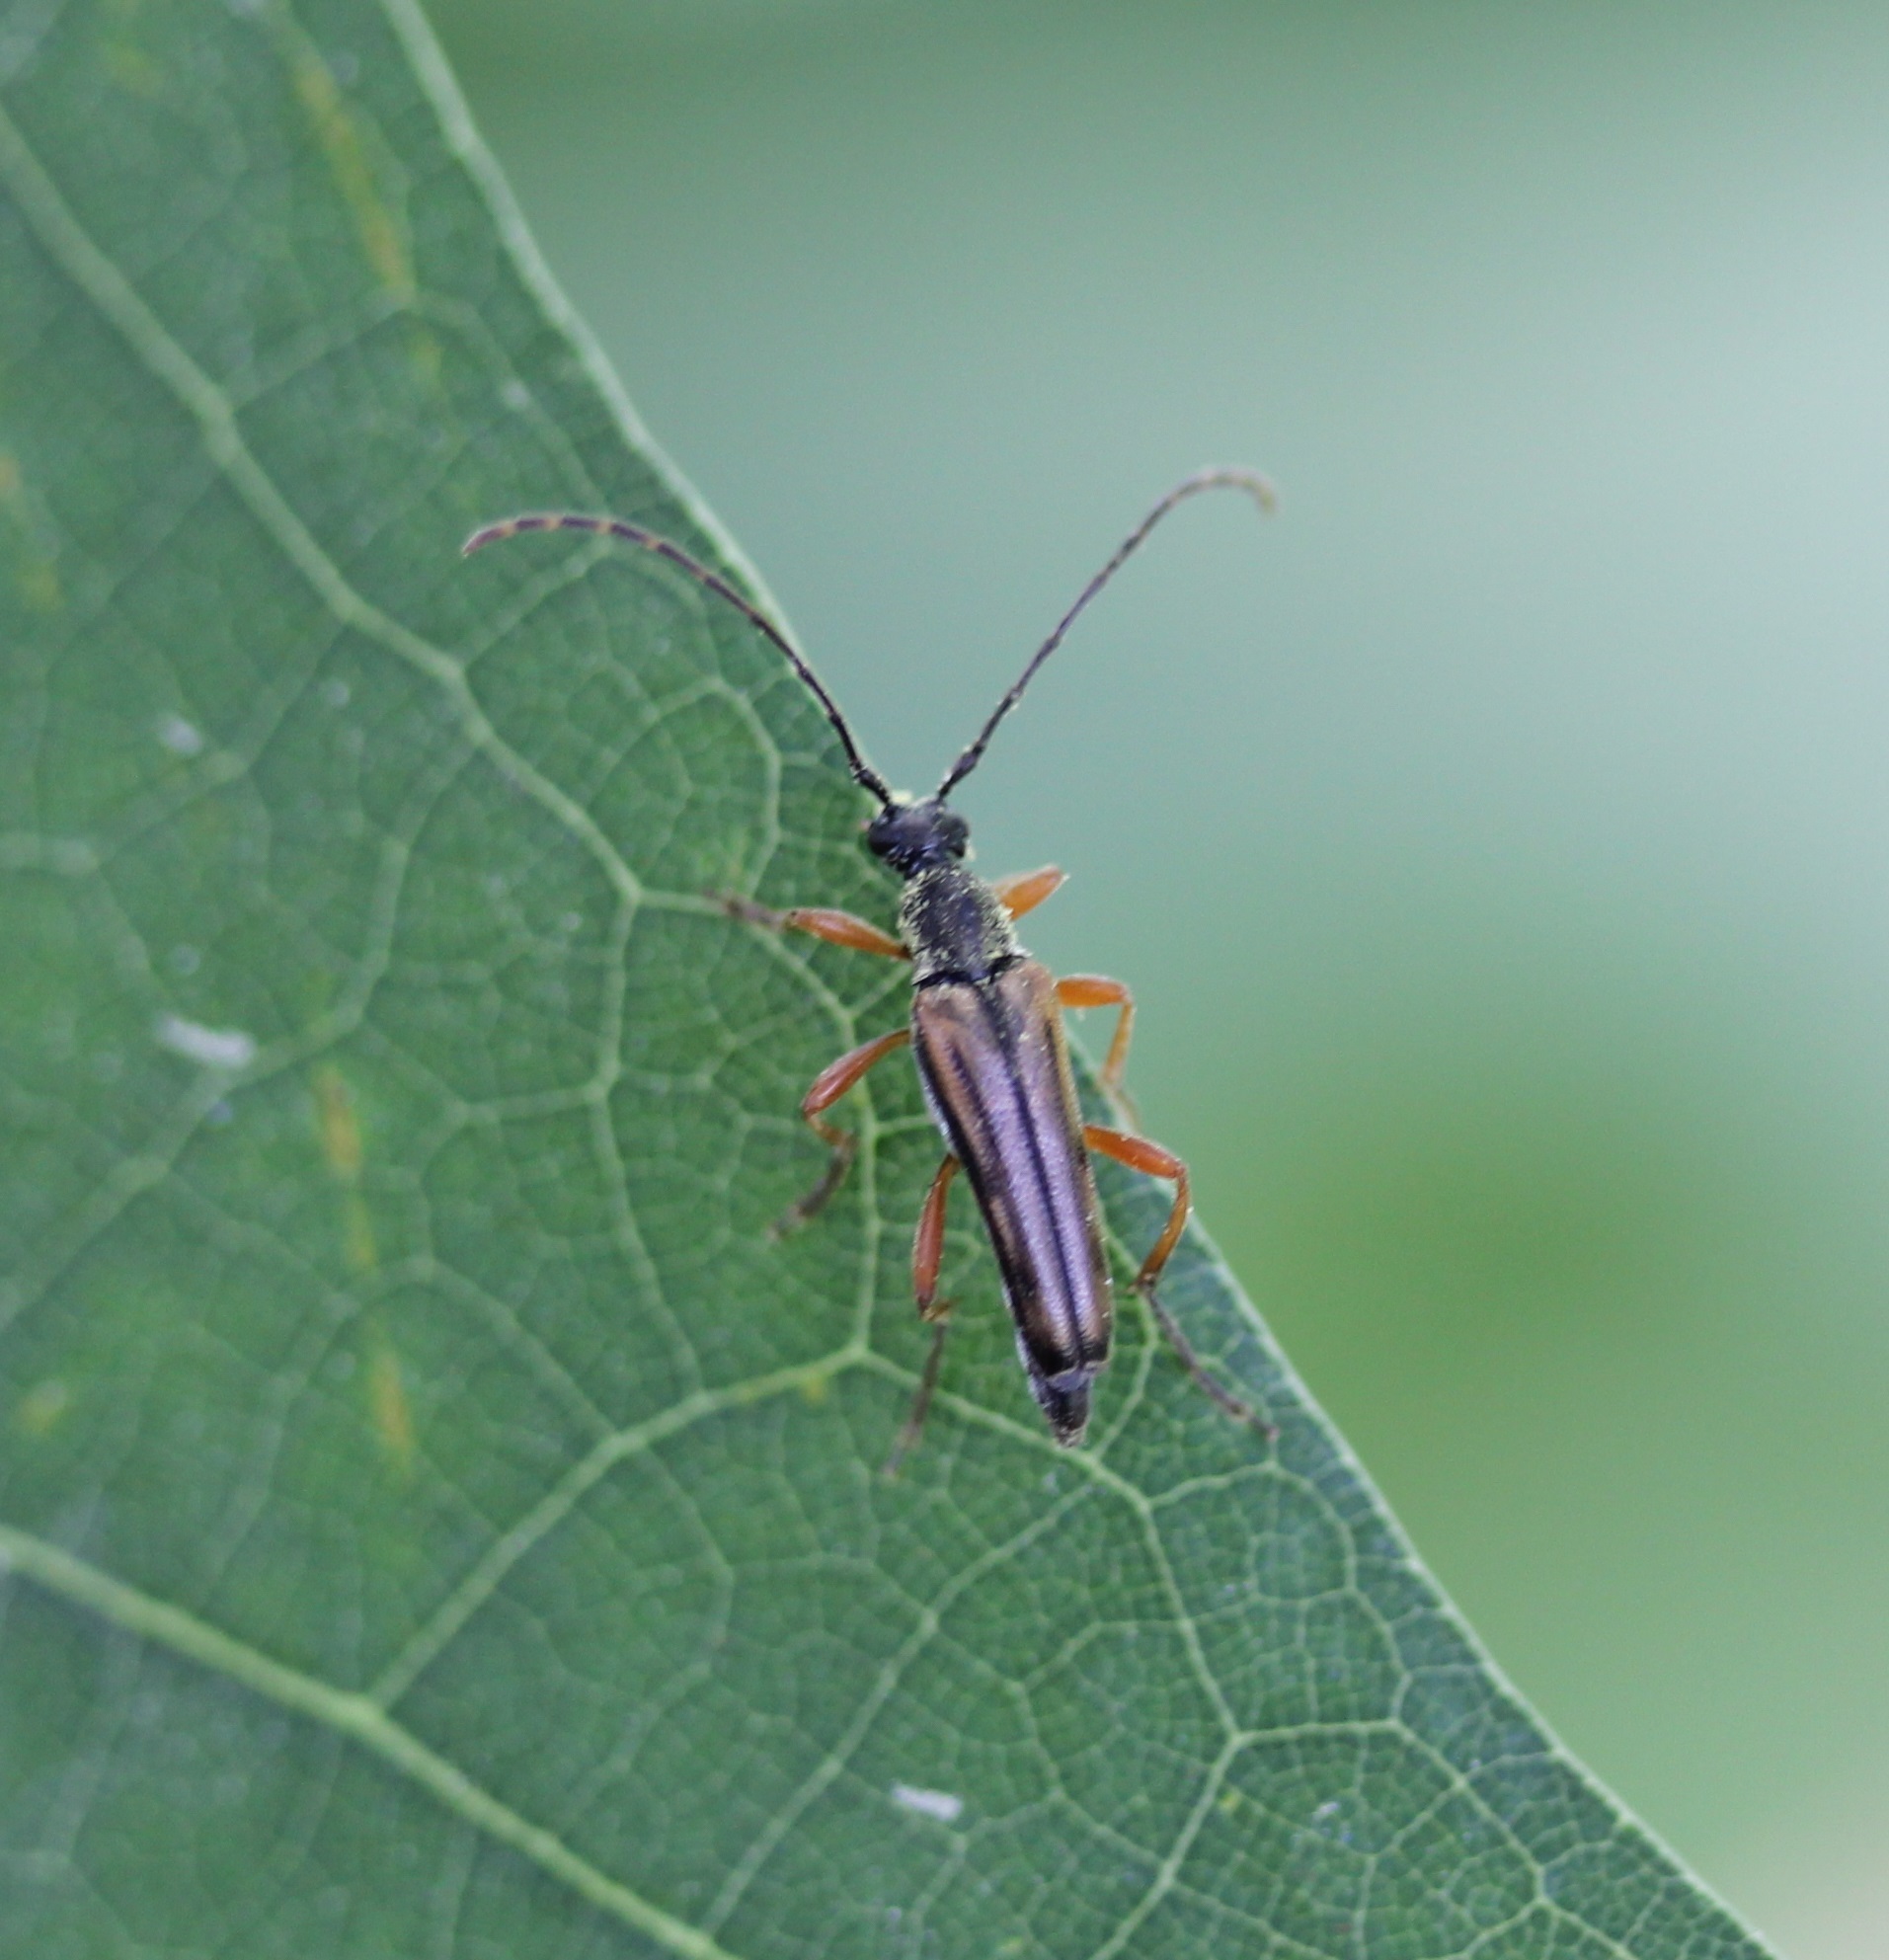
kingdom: Animalia
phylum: Arthropoda
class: Insecta
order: Coleoptera
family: Cerambycidae
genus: Analeptura
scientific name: Analeptura lineola
